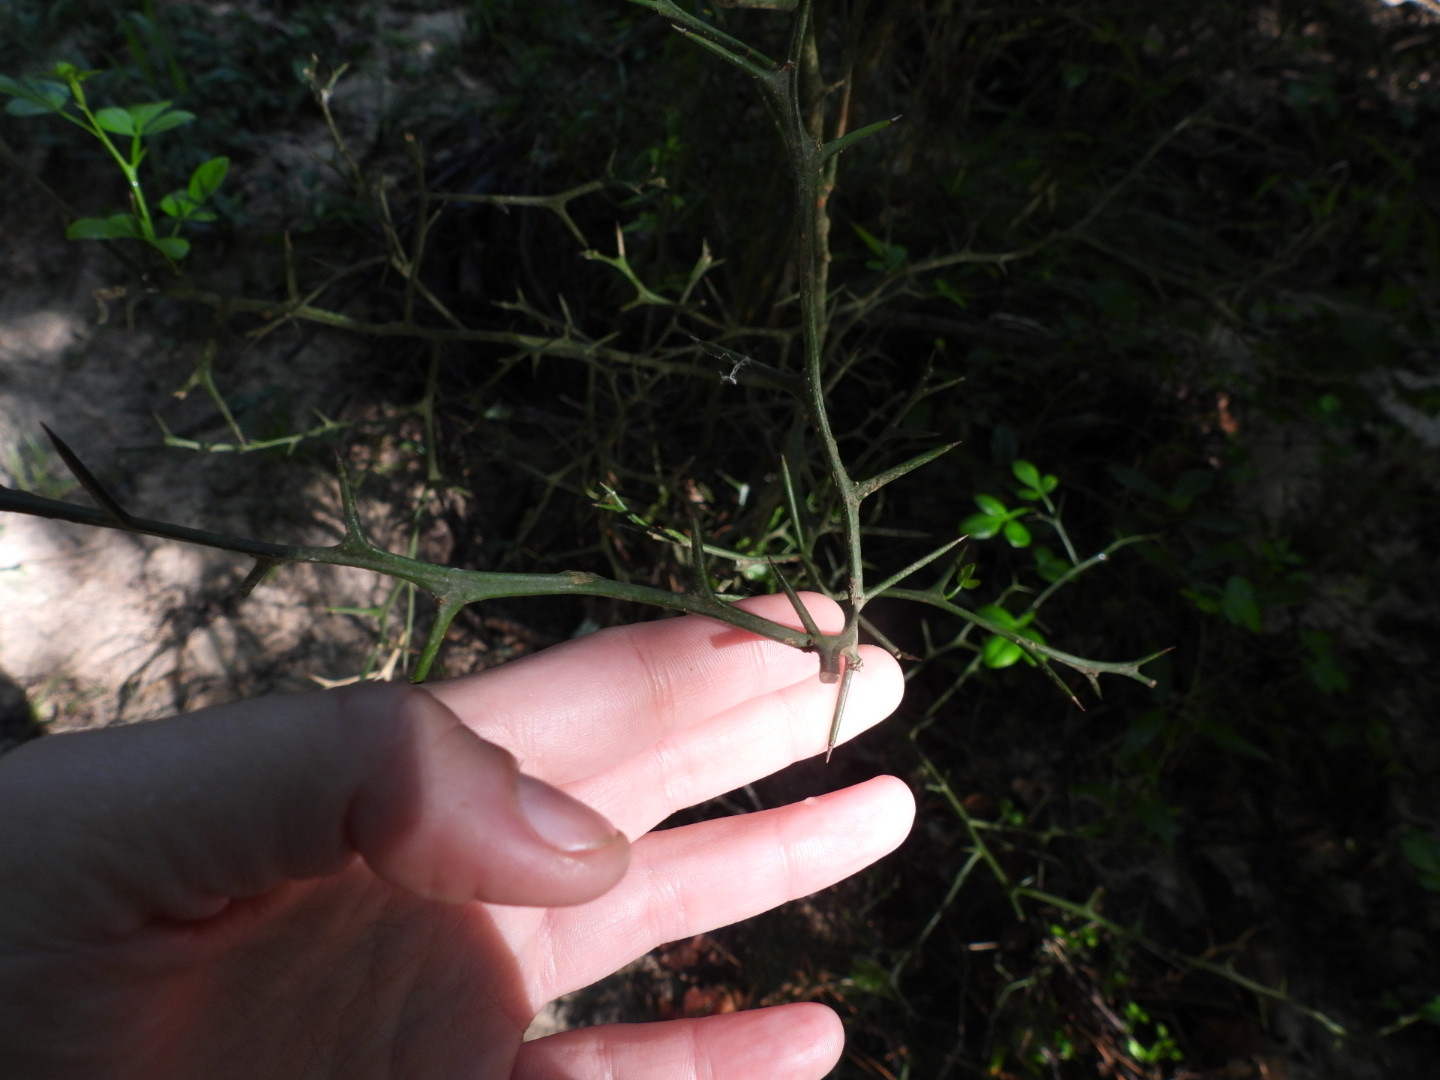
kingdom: Plantae
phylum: Tracheophyta
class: Magnoliopsida
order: Sapindales
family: Rutaceae
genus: Citrus
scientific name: Citrus trifoliata
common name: Japanese bitter-orange
